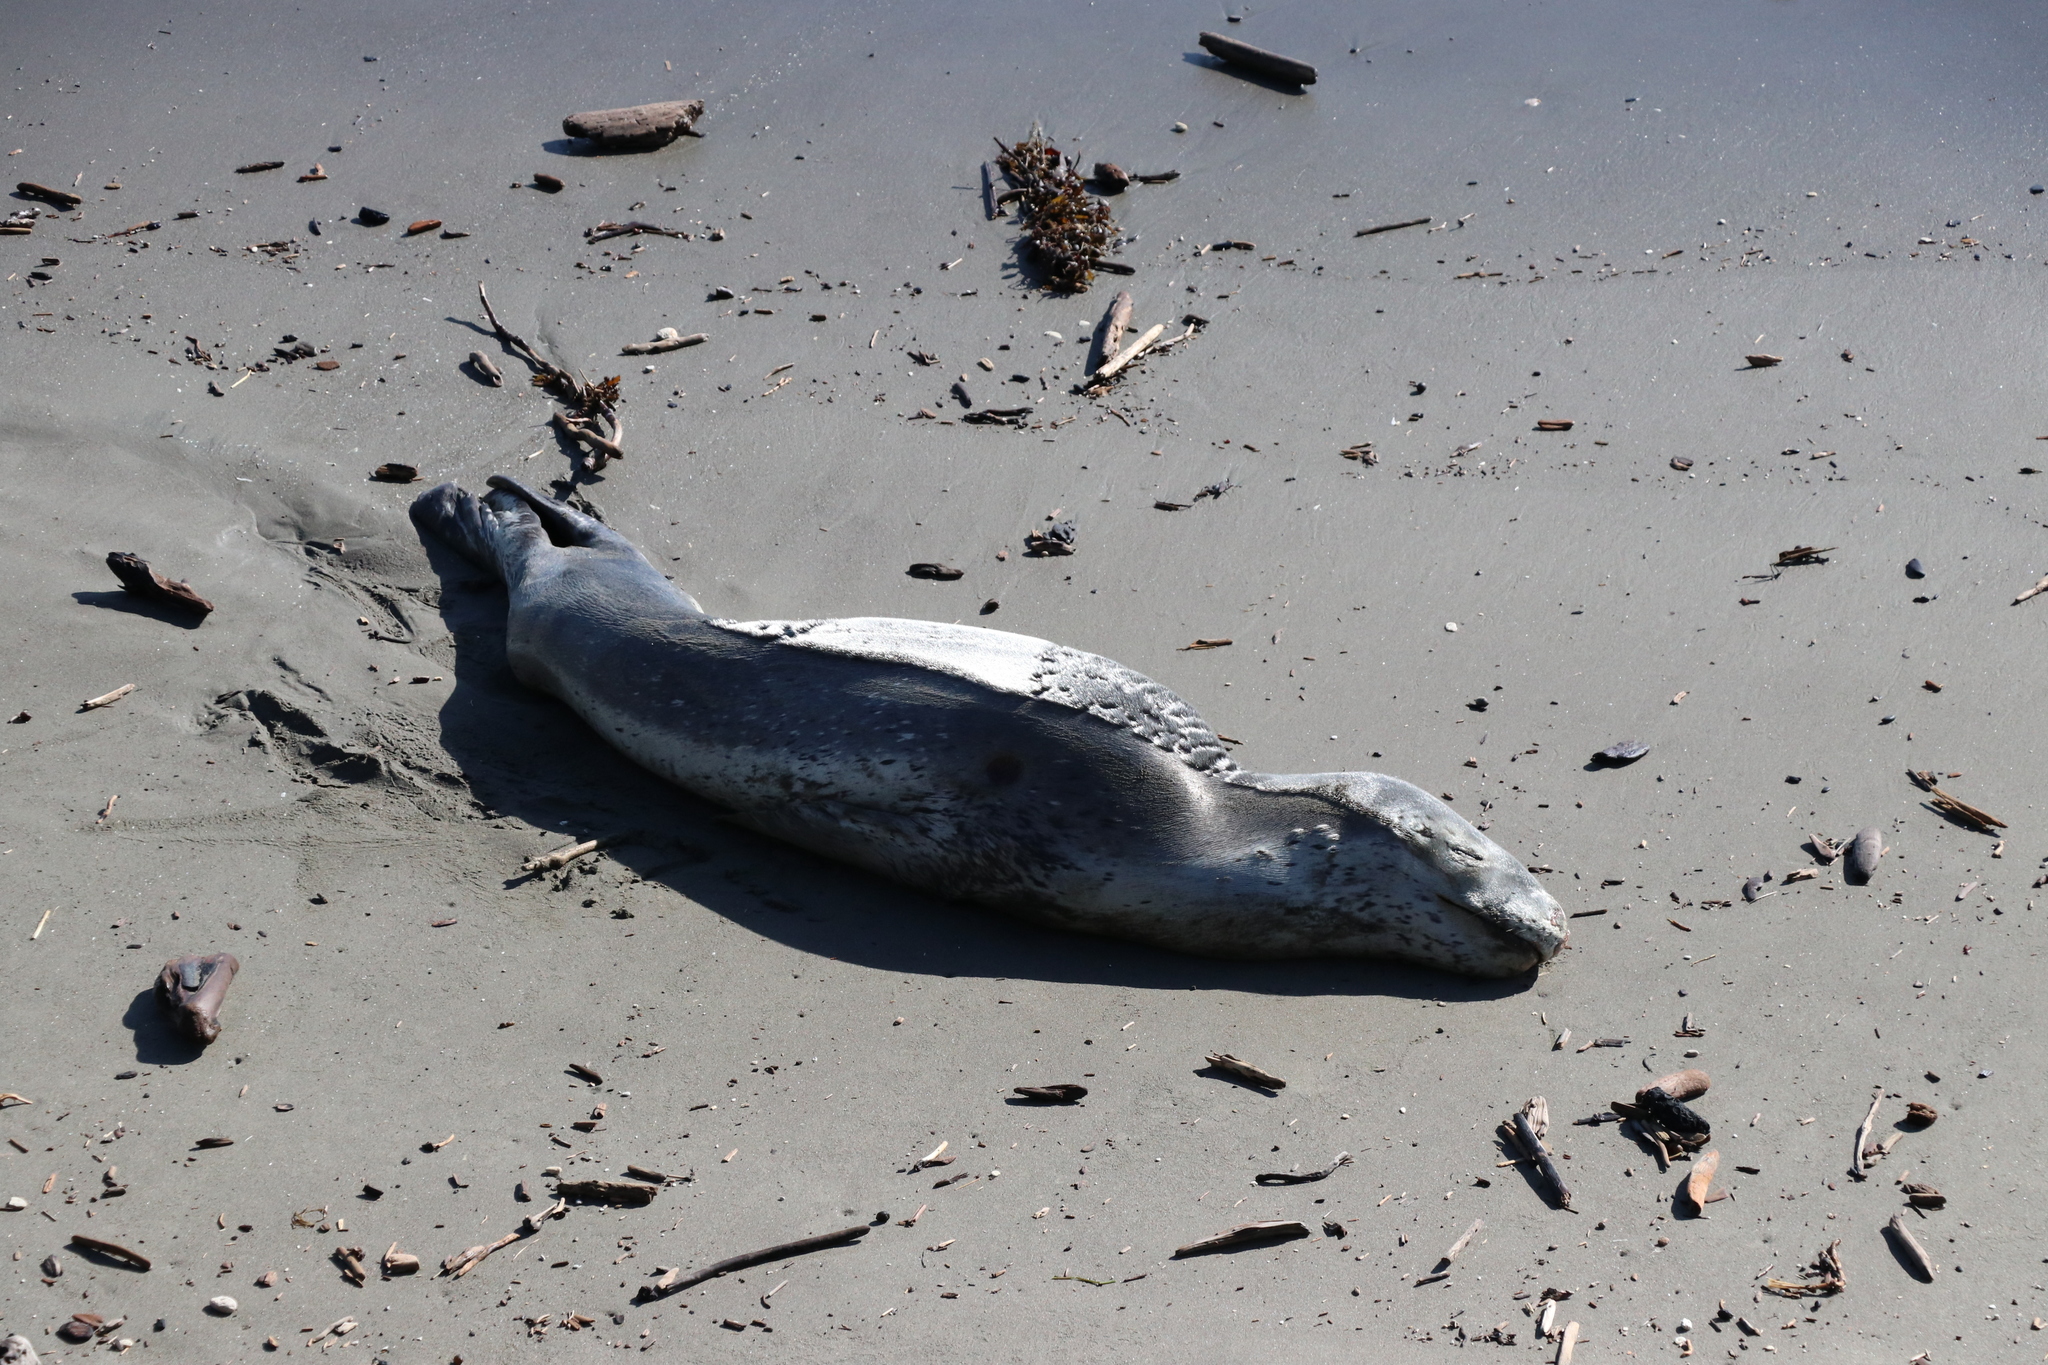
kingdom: Animalia
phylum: Chordata
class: Mammalia
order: Carnivora
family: Phocidae
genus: Hydrurga
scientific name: Hydrurga leptonyx
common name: Leopard seal
